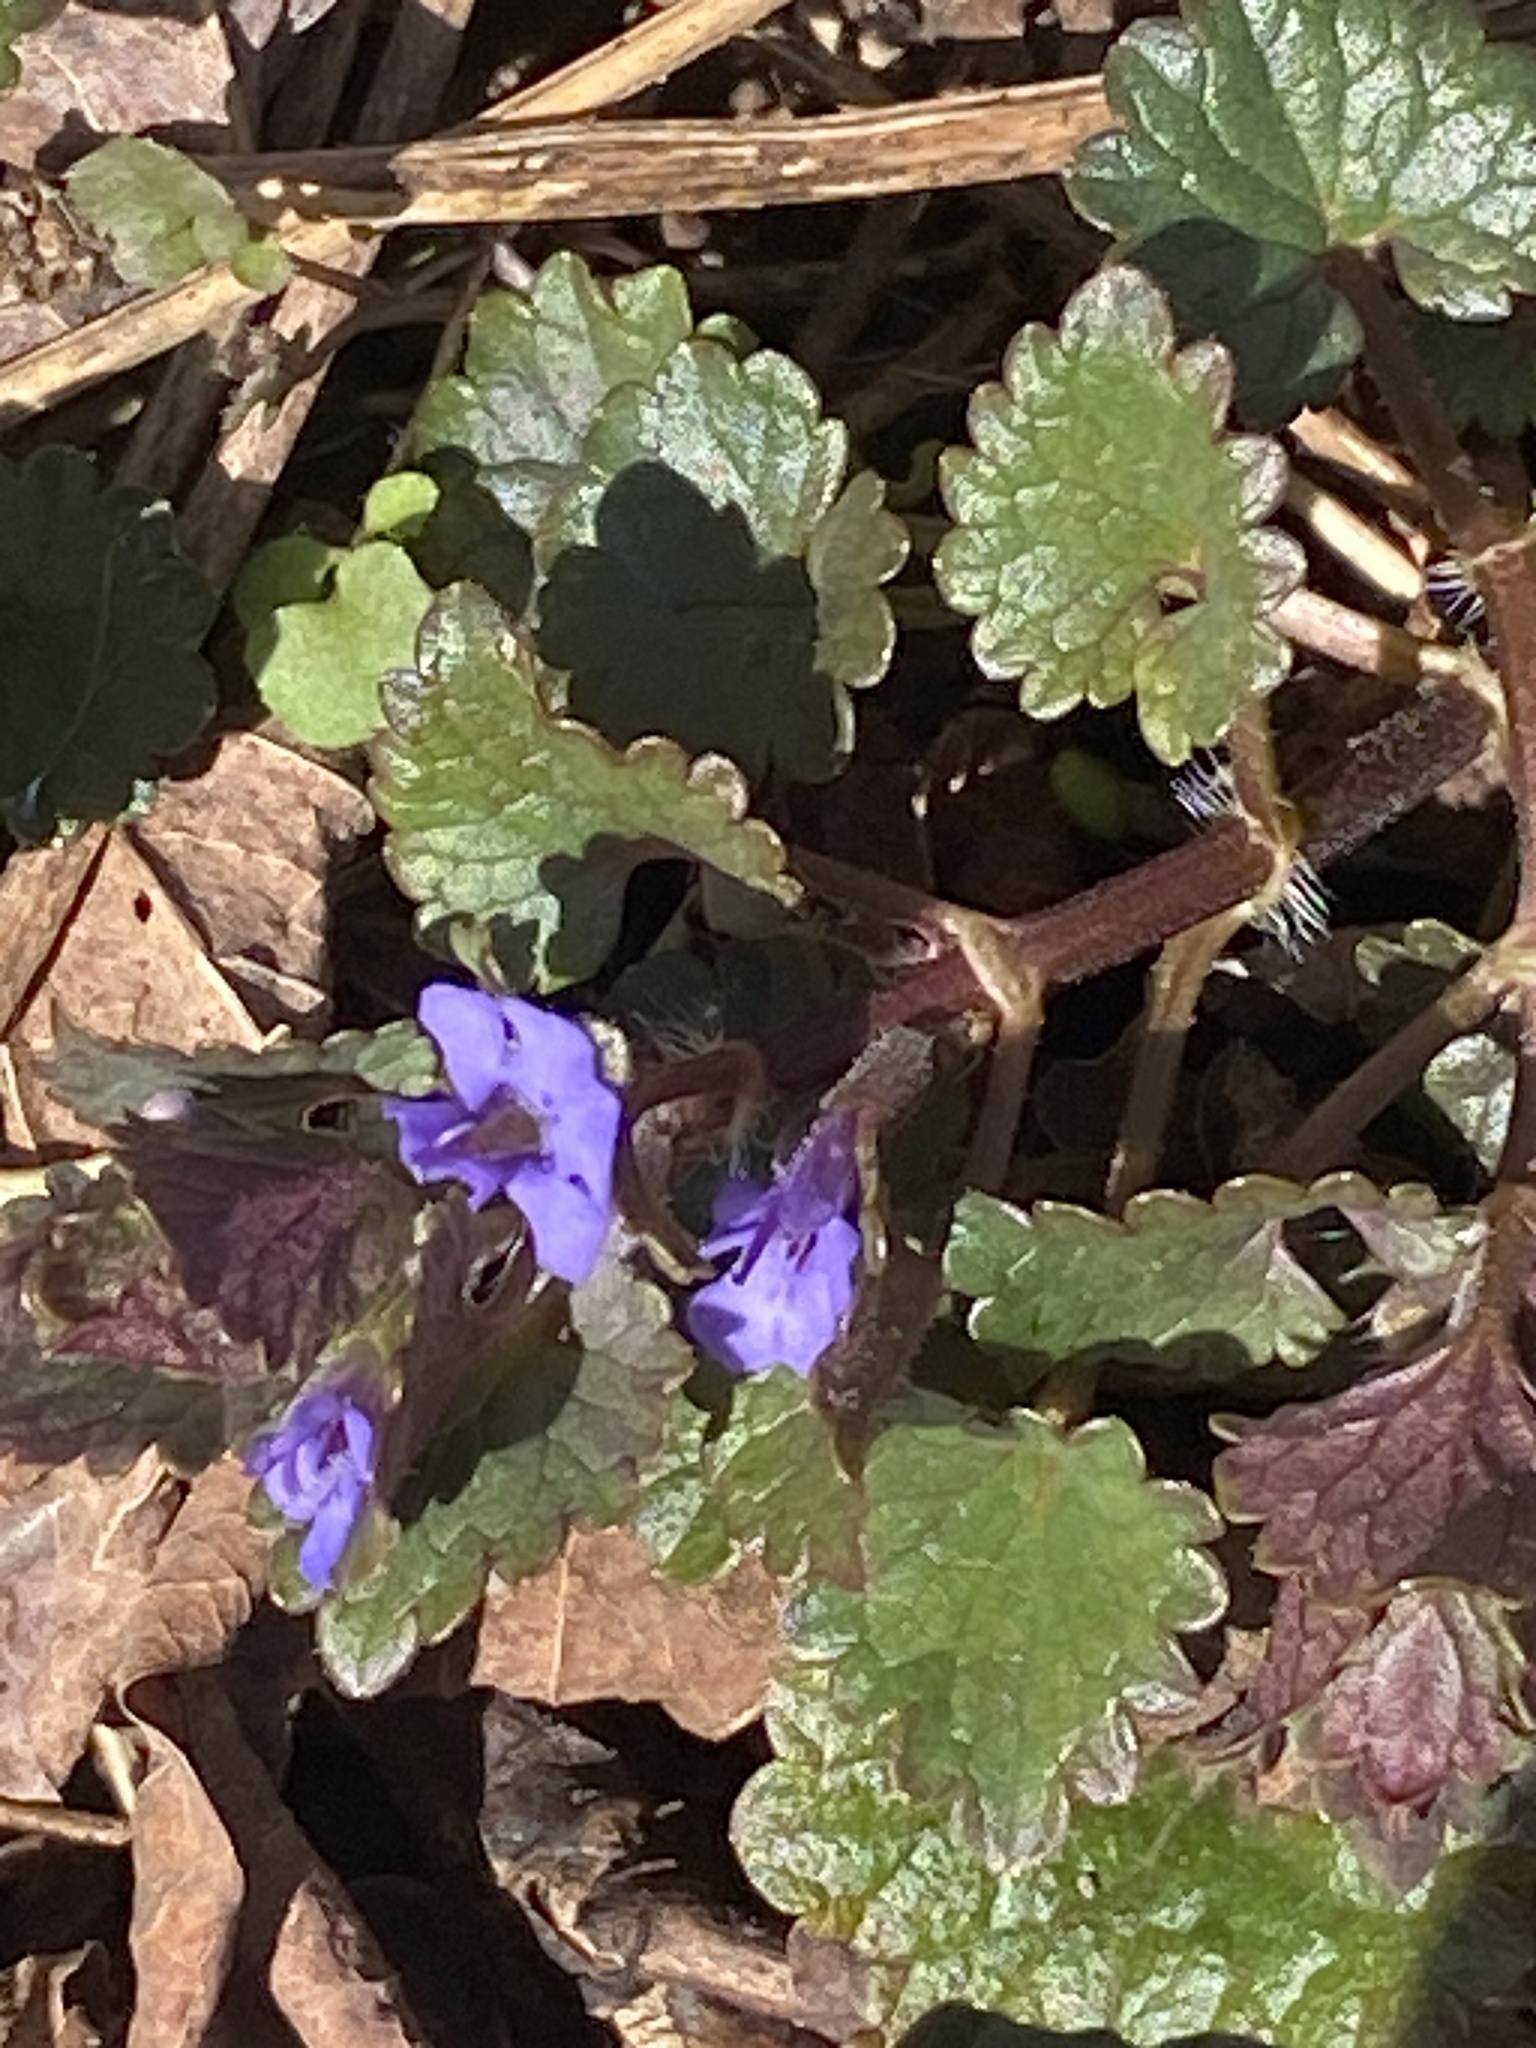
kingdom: Plantae
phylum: Tracheophyta
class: Magnoliopsida
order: Lamiales
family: Lamiaceae
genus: Glechoma
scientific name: Glechoma hederacea
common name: Ground ivy
